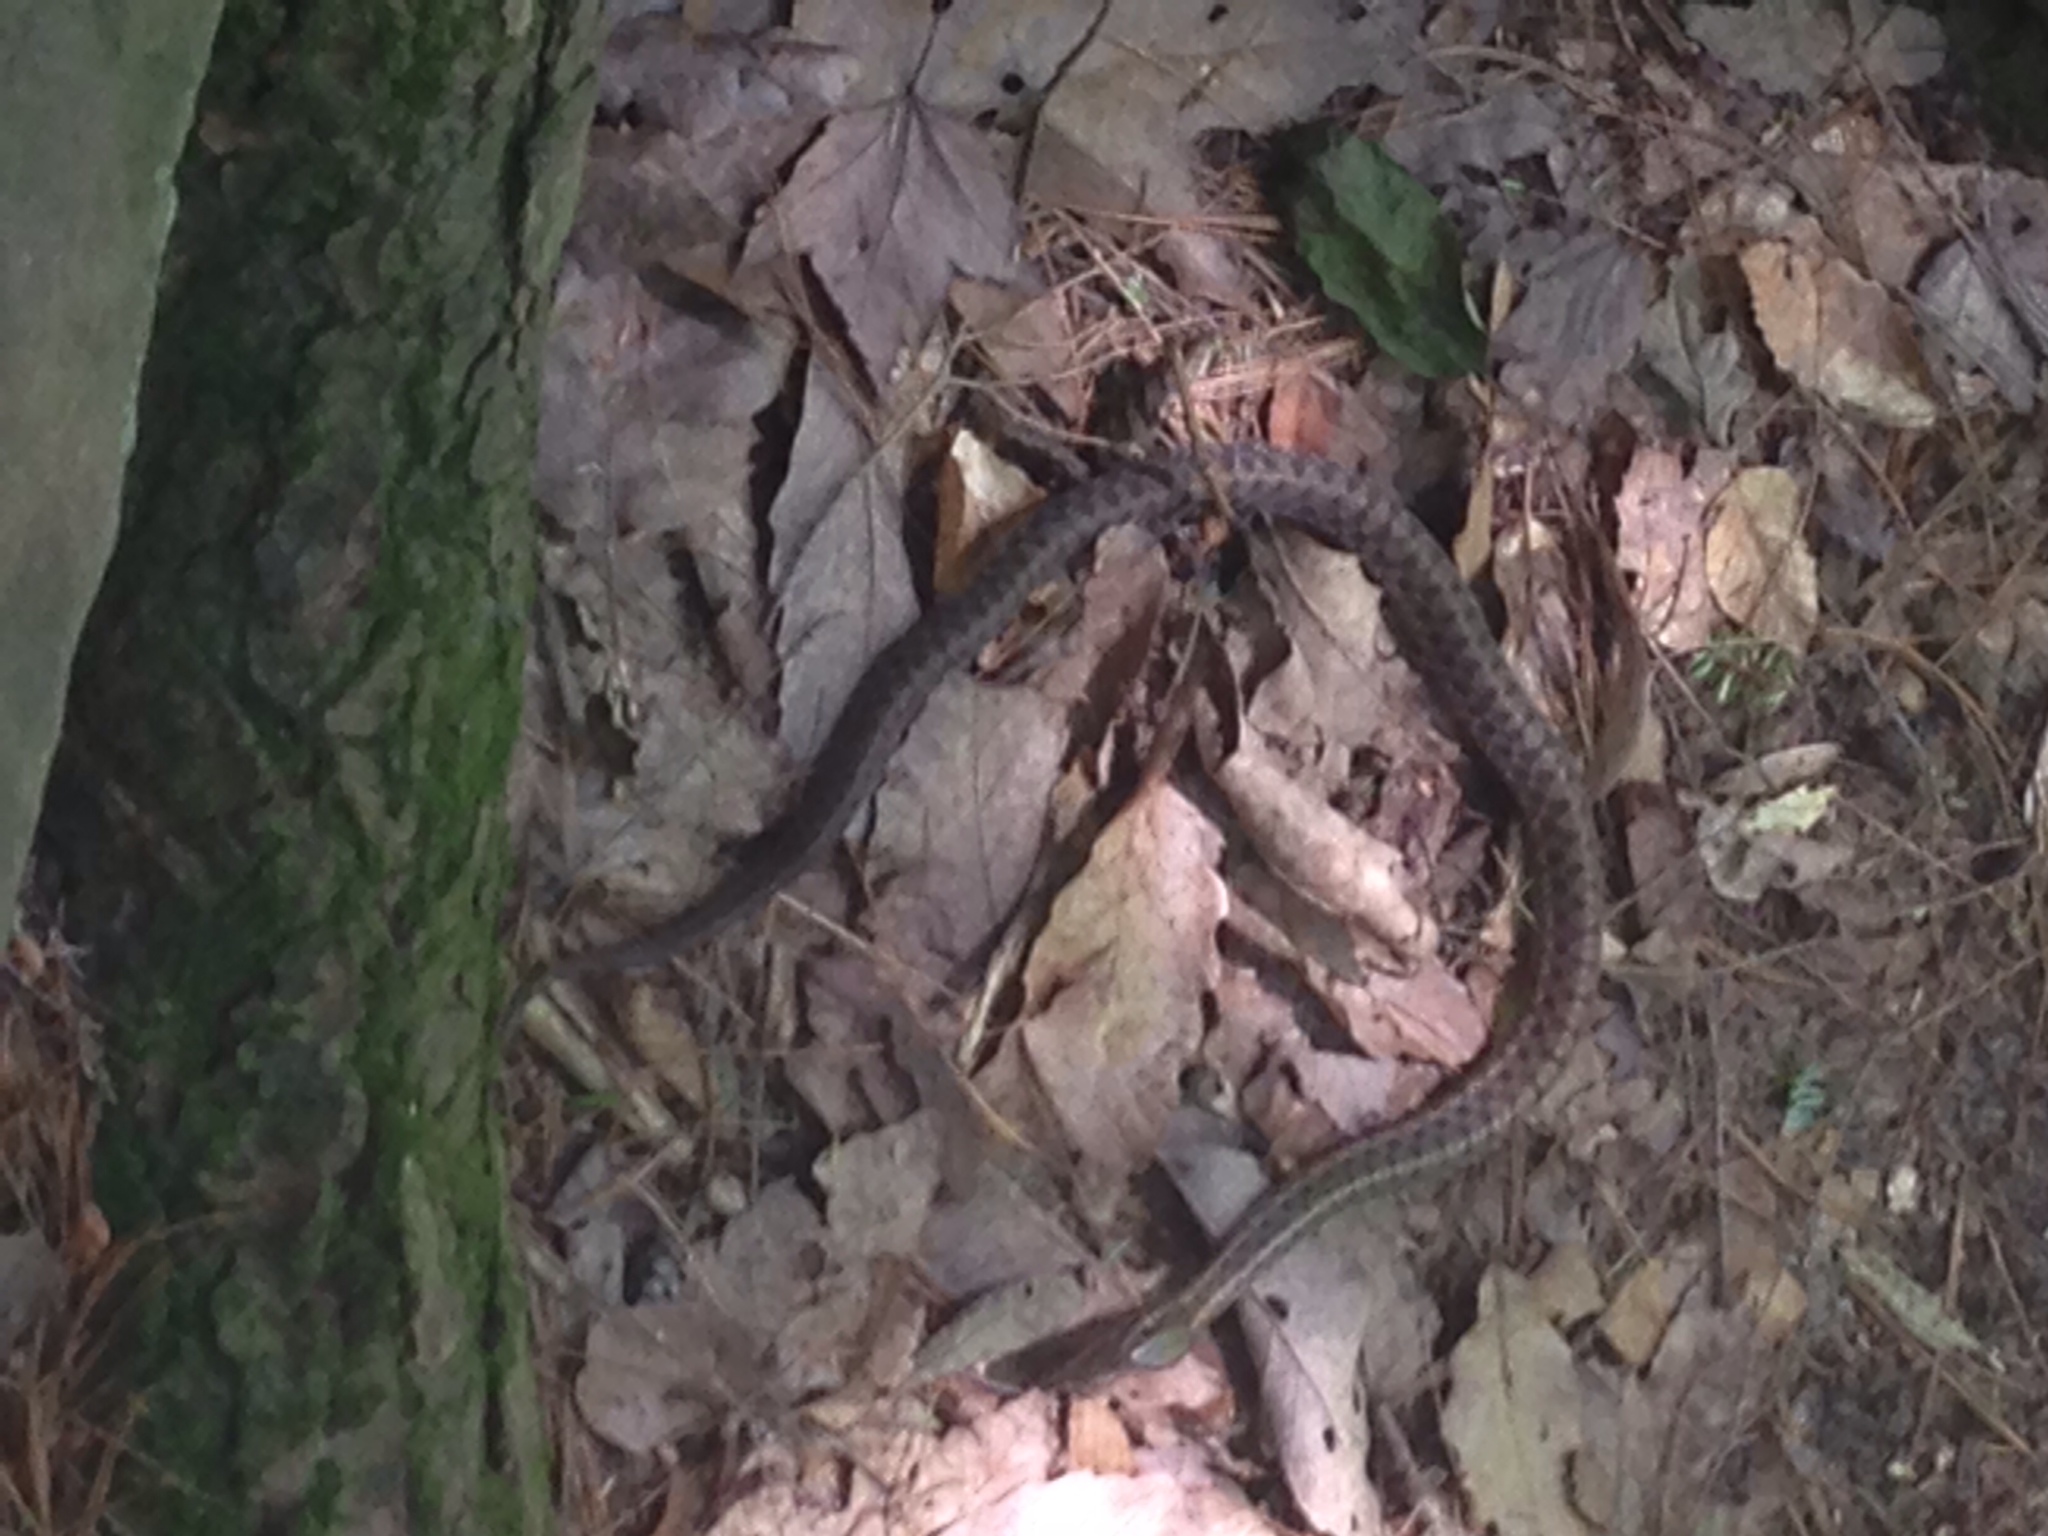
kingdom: Animalia
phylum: Chordata
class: Squamata
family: Colubridae
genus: Thamnophis
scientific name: Thamnophis sirtalis
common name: Common garter snake
